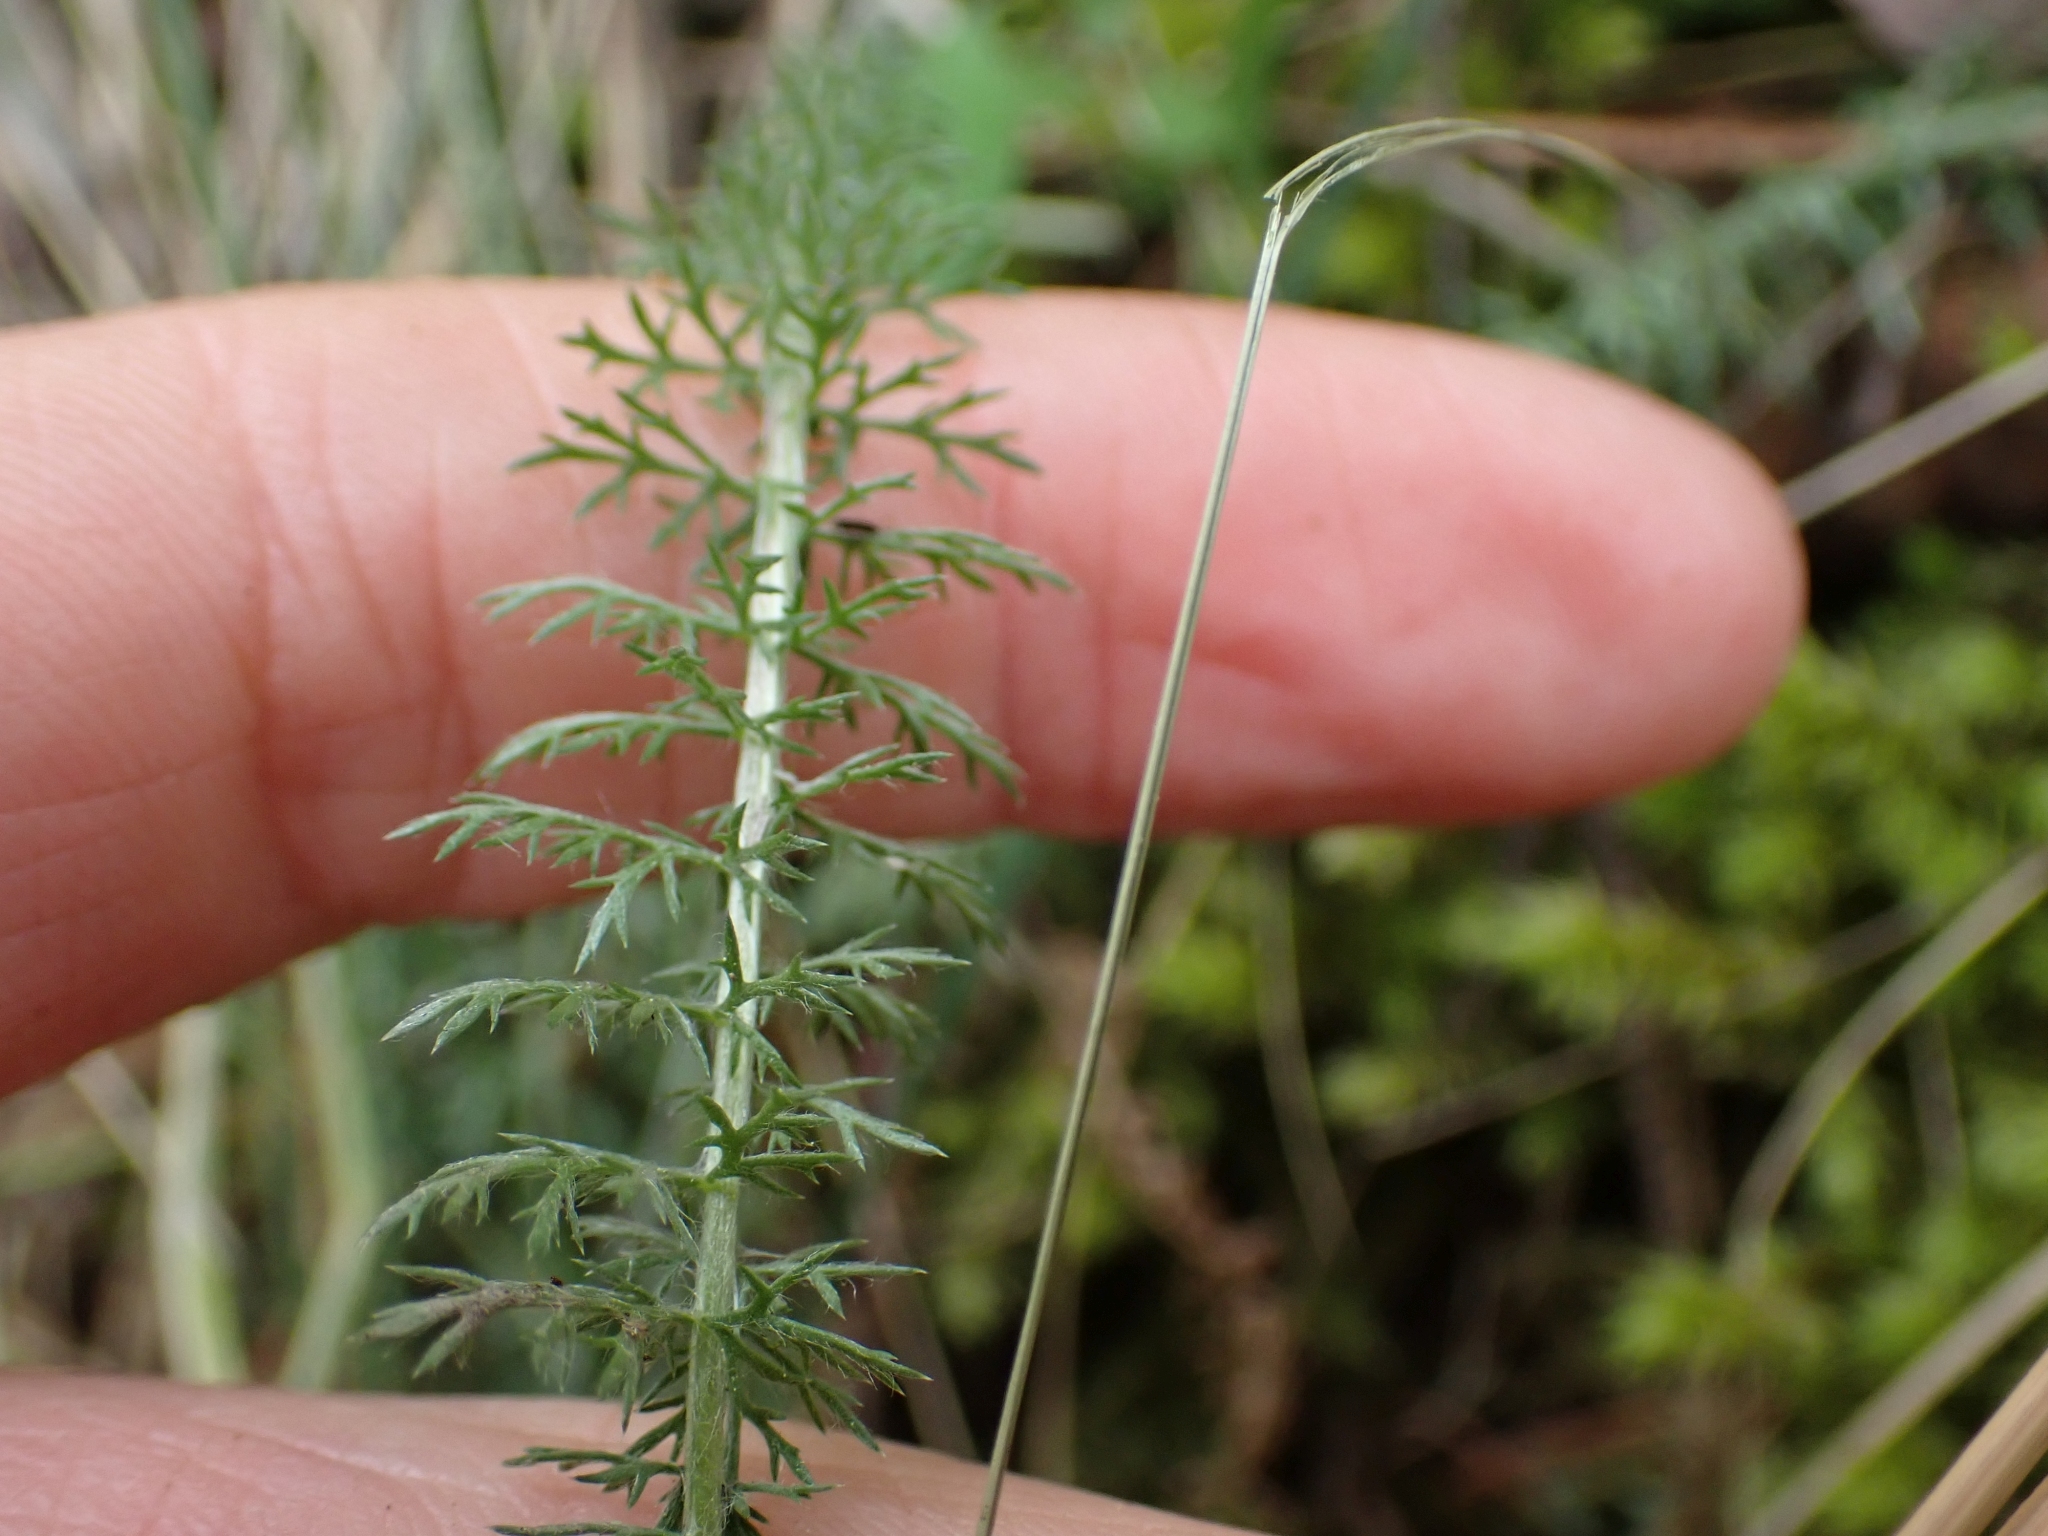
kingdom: Plantae
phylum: Tracheophyta
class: Magnoliopsida
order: Asterales
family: Asteraceae
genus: Achillea
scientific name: Achillea millefolium
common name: Yarrow
